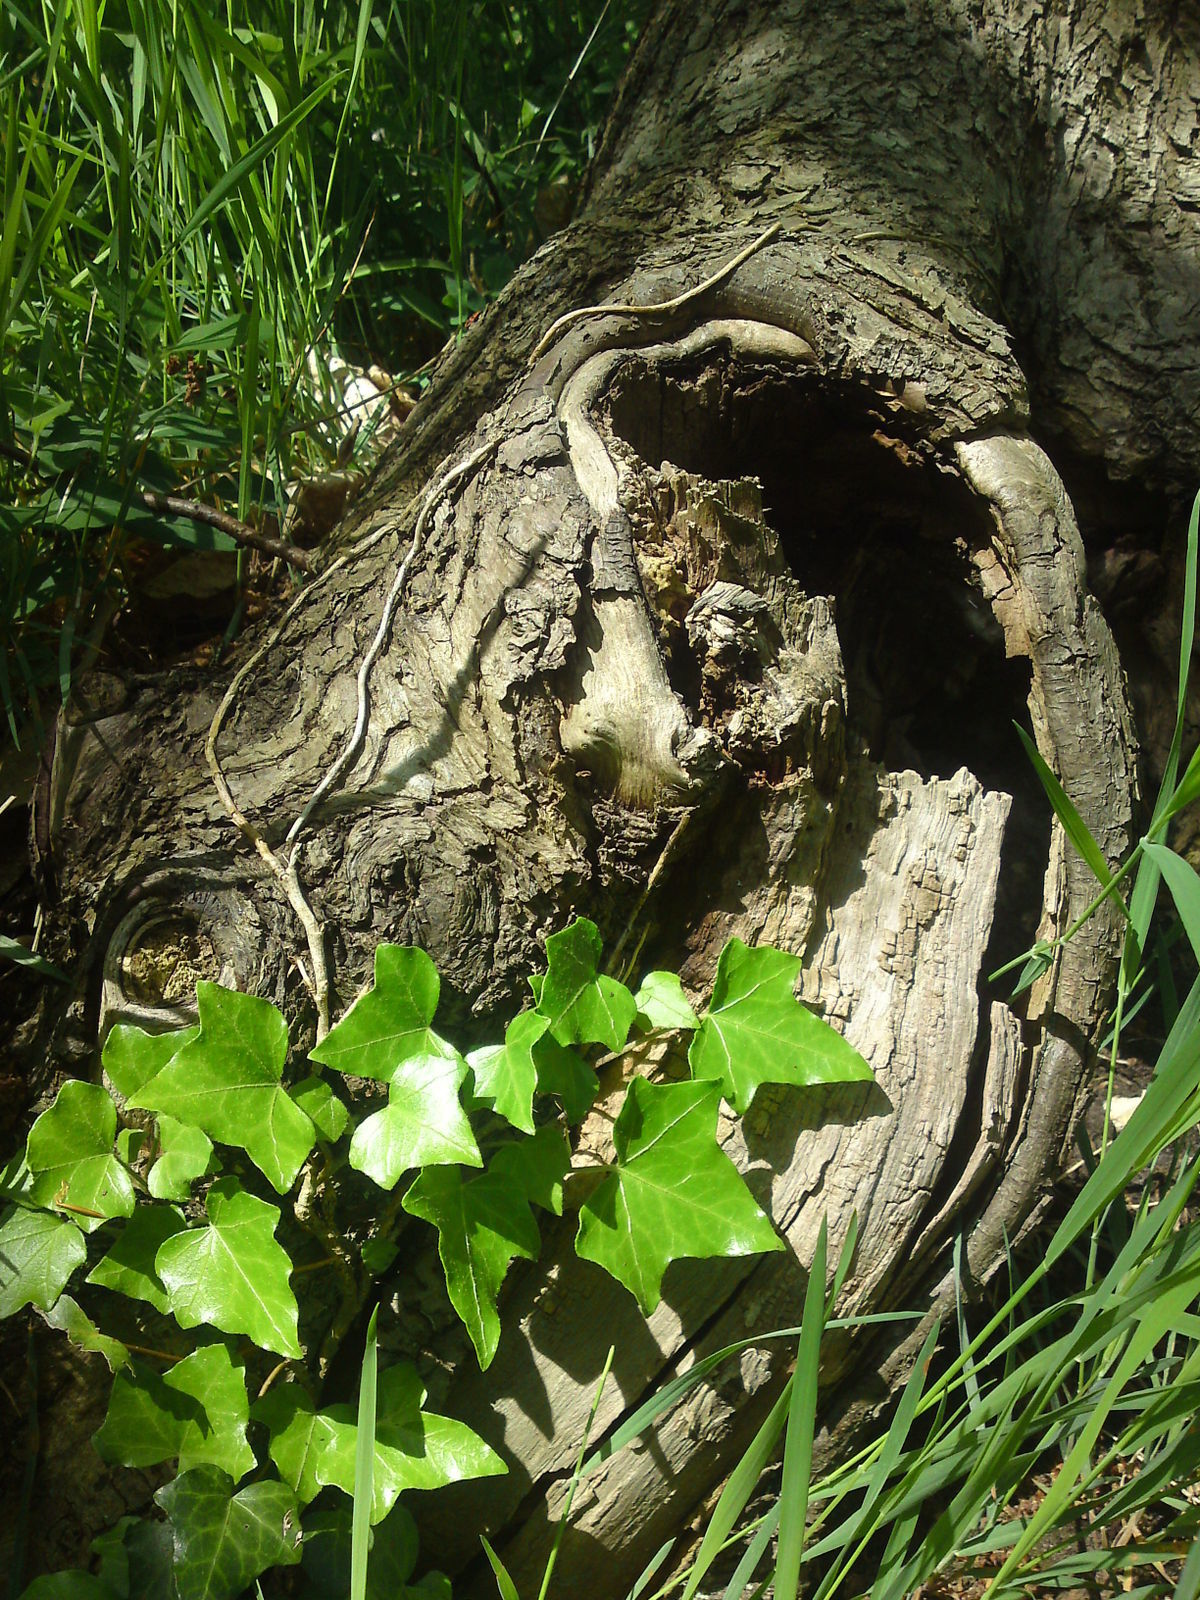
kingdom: Plantae
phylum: Tracheophyta
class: Magnoliopsida
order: Apiales
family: Araliaceae
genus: Hedera
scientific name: Hedera helix
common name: Ivy
